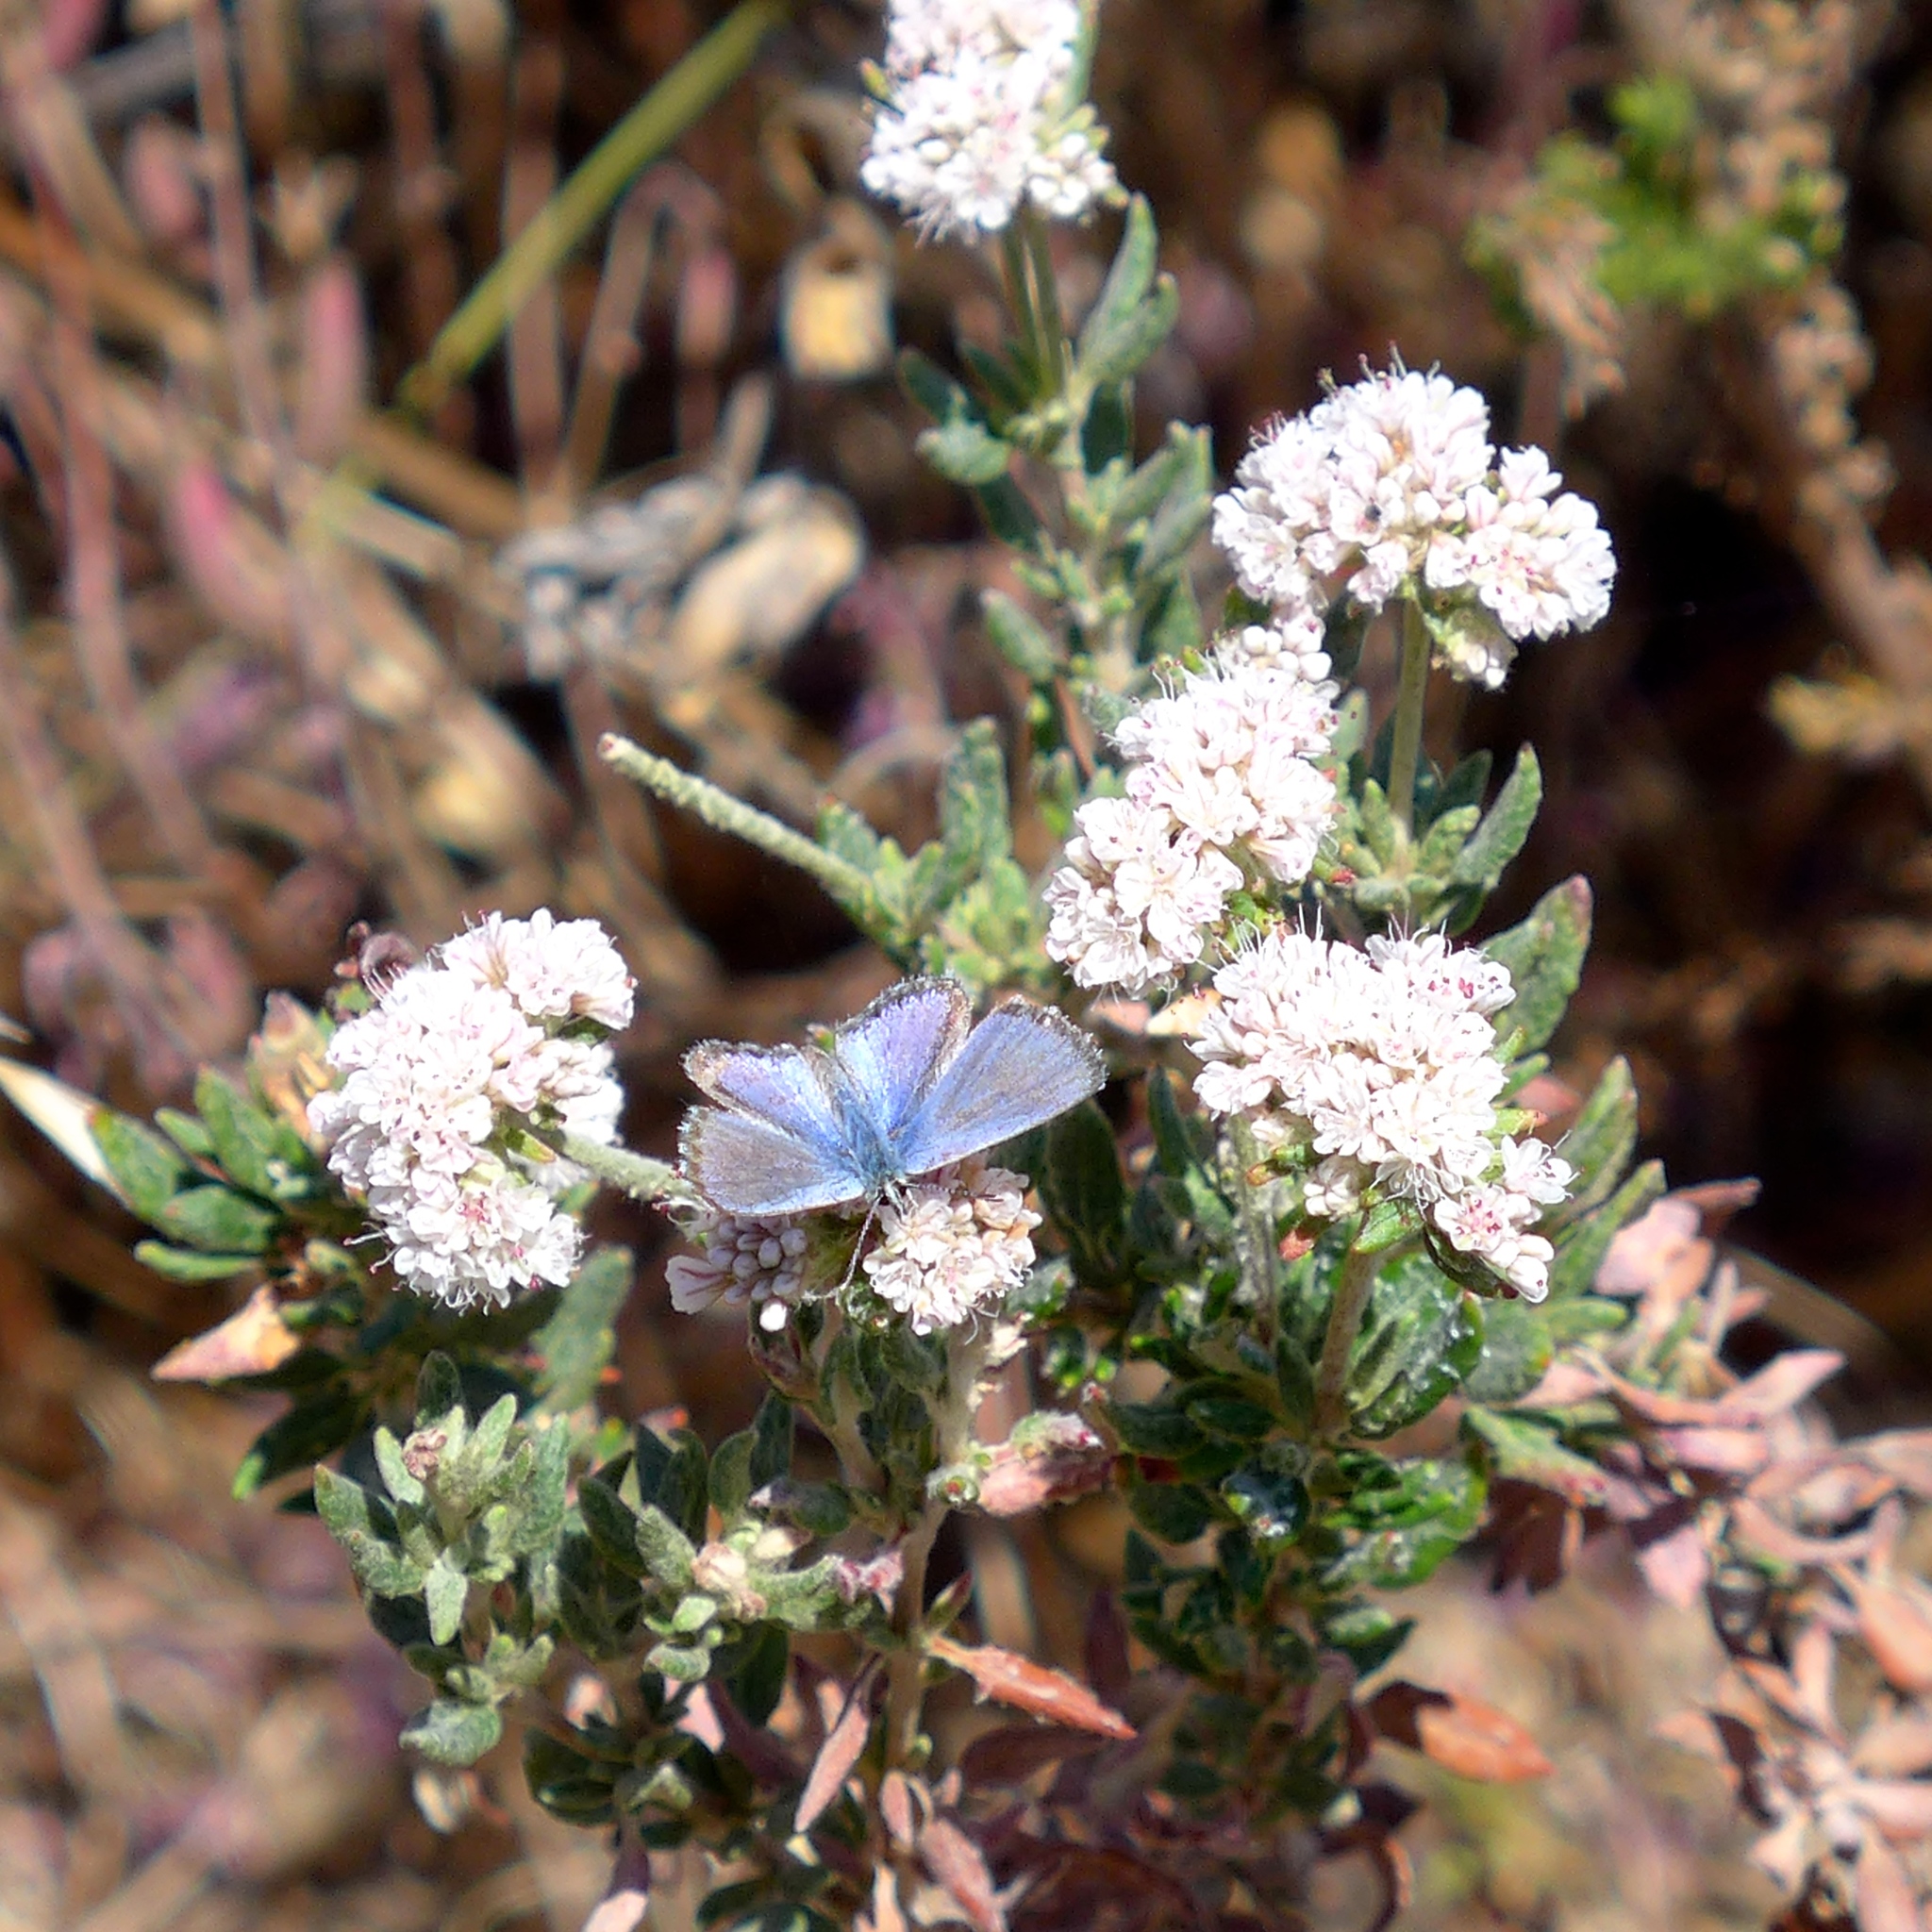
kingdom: Animalia
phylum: Arthropoda
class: Insecta
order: Lepidoptera
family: Lycaenidae
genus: Euphilotes
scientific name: Euphilotes enoptes
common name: Dotted blue
